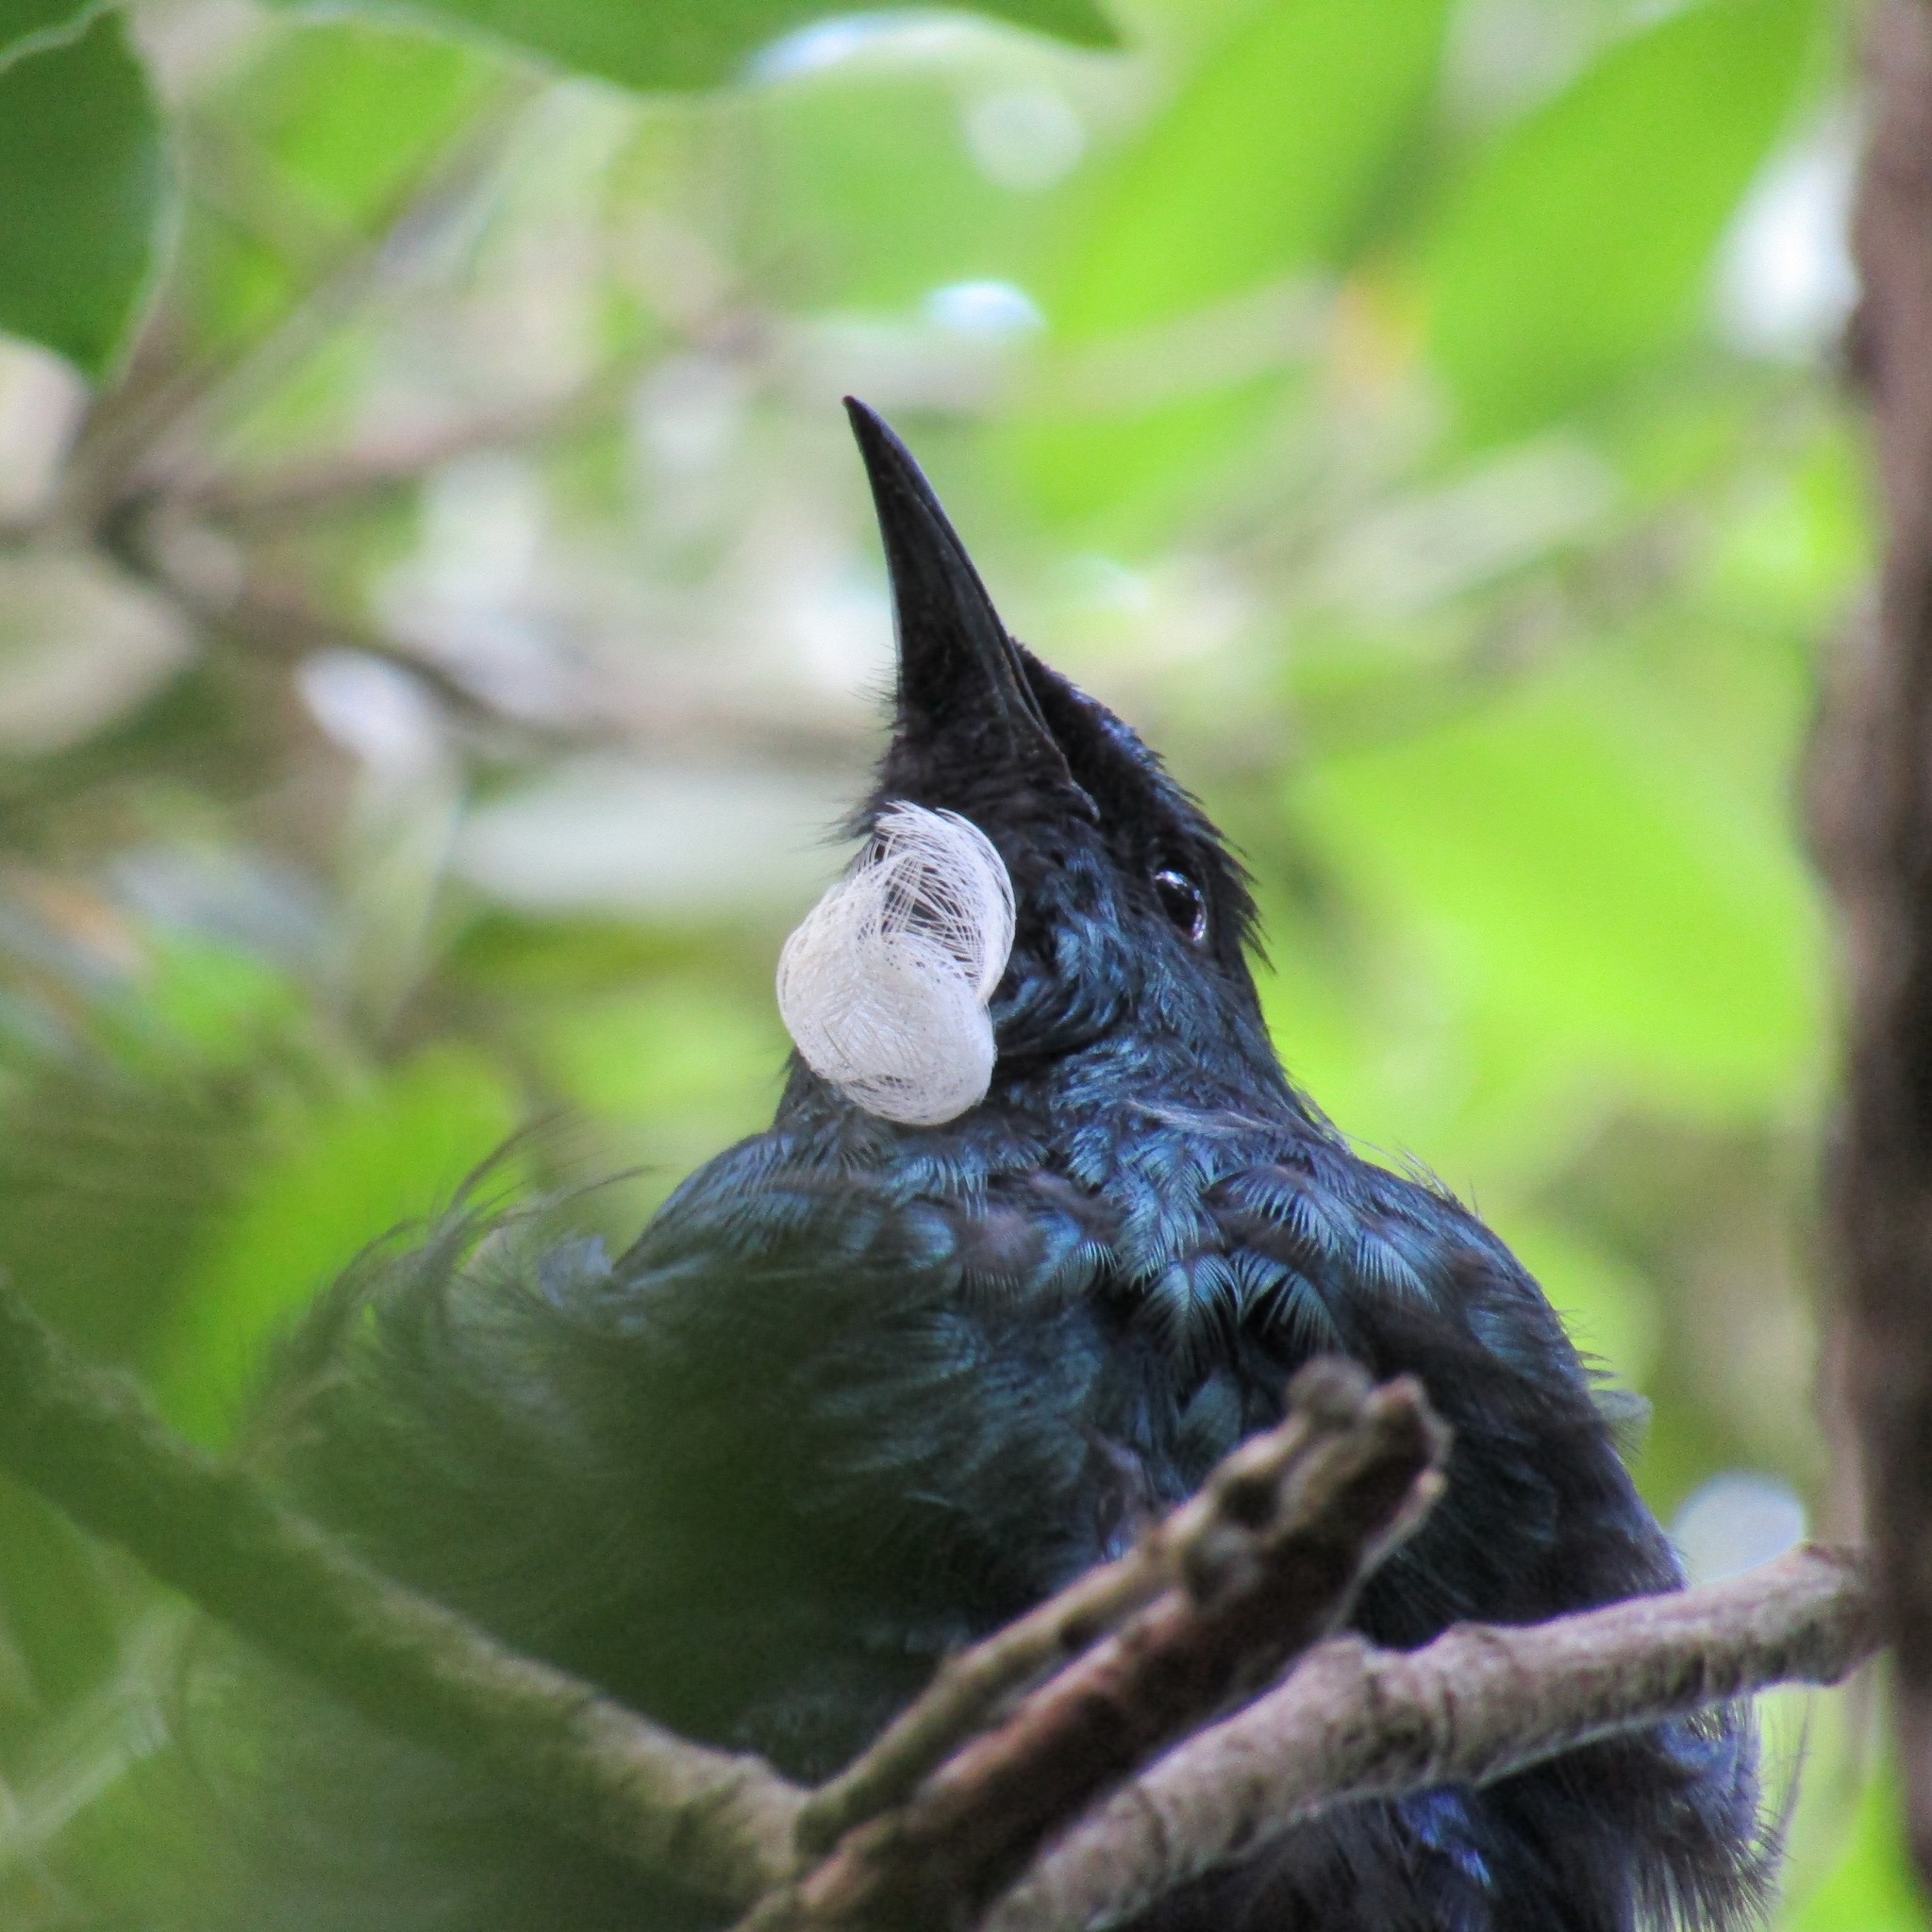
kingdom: Animalia
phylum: Chordata
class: Aves
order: Passeriformes
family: Meliphagidae
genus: Prosthemadera
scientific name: Prosthemadera novaeseelandiae
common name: Tui
